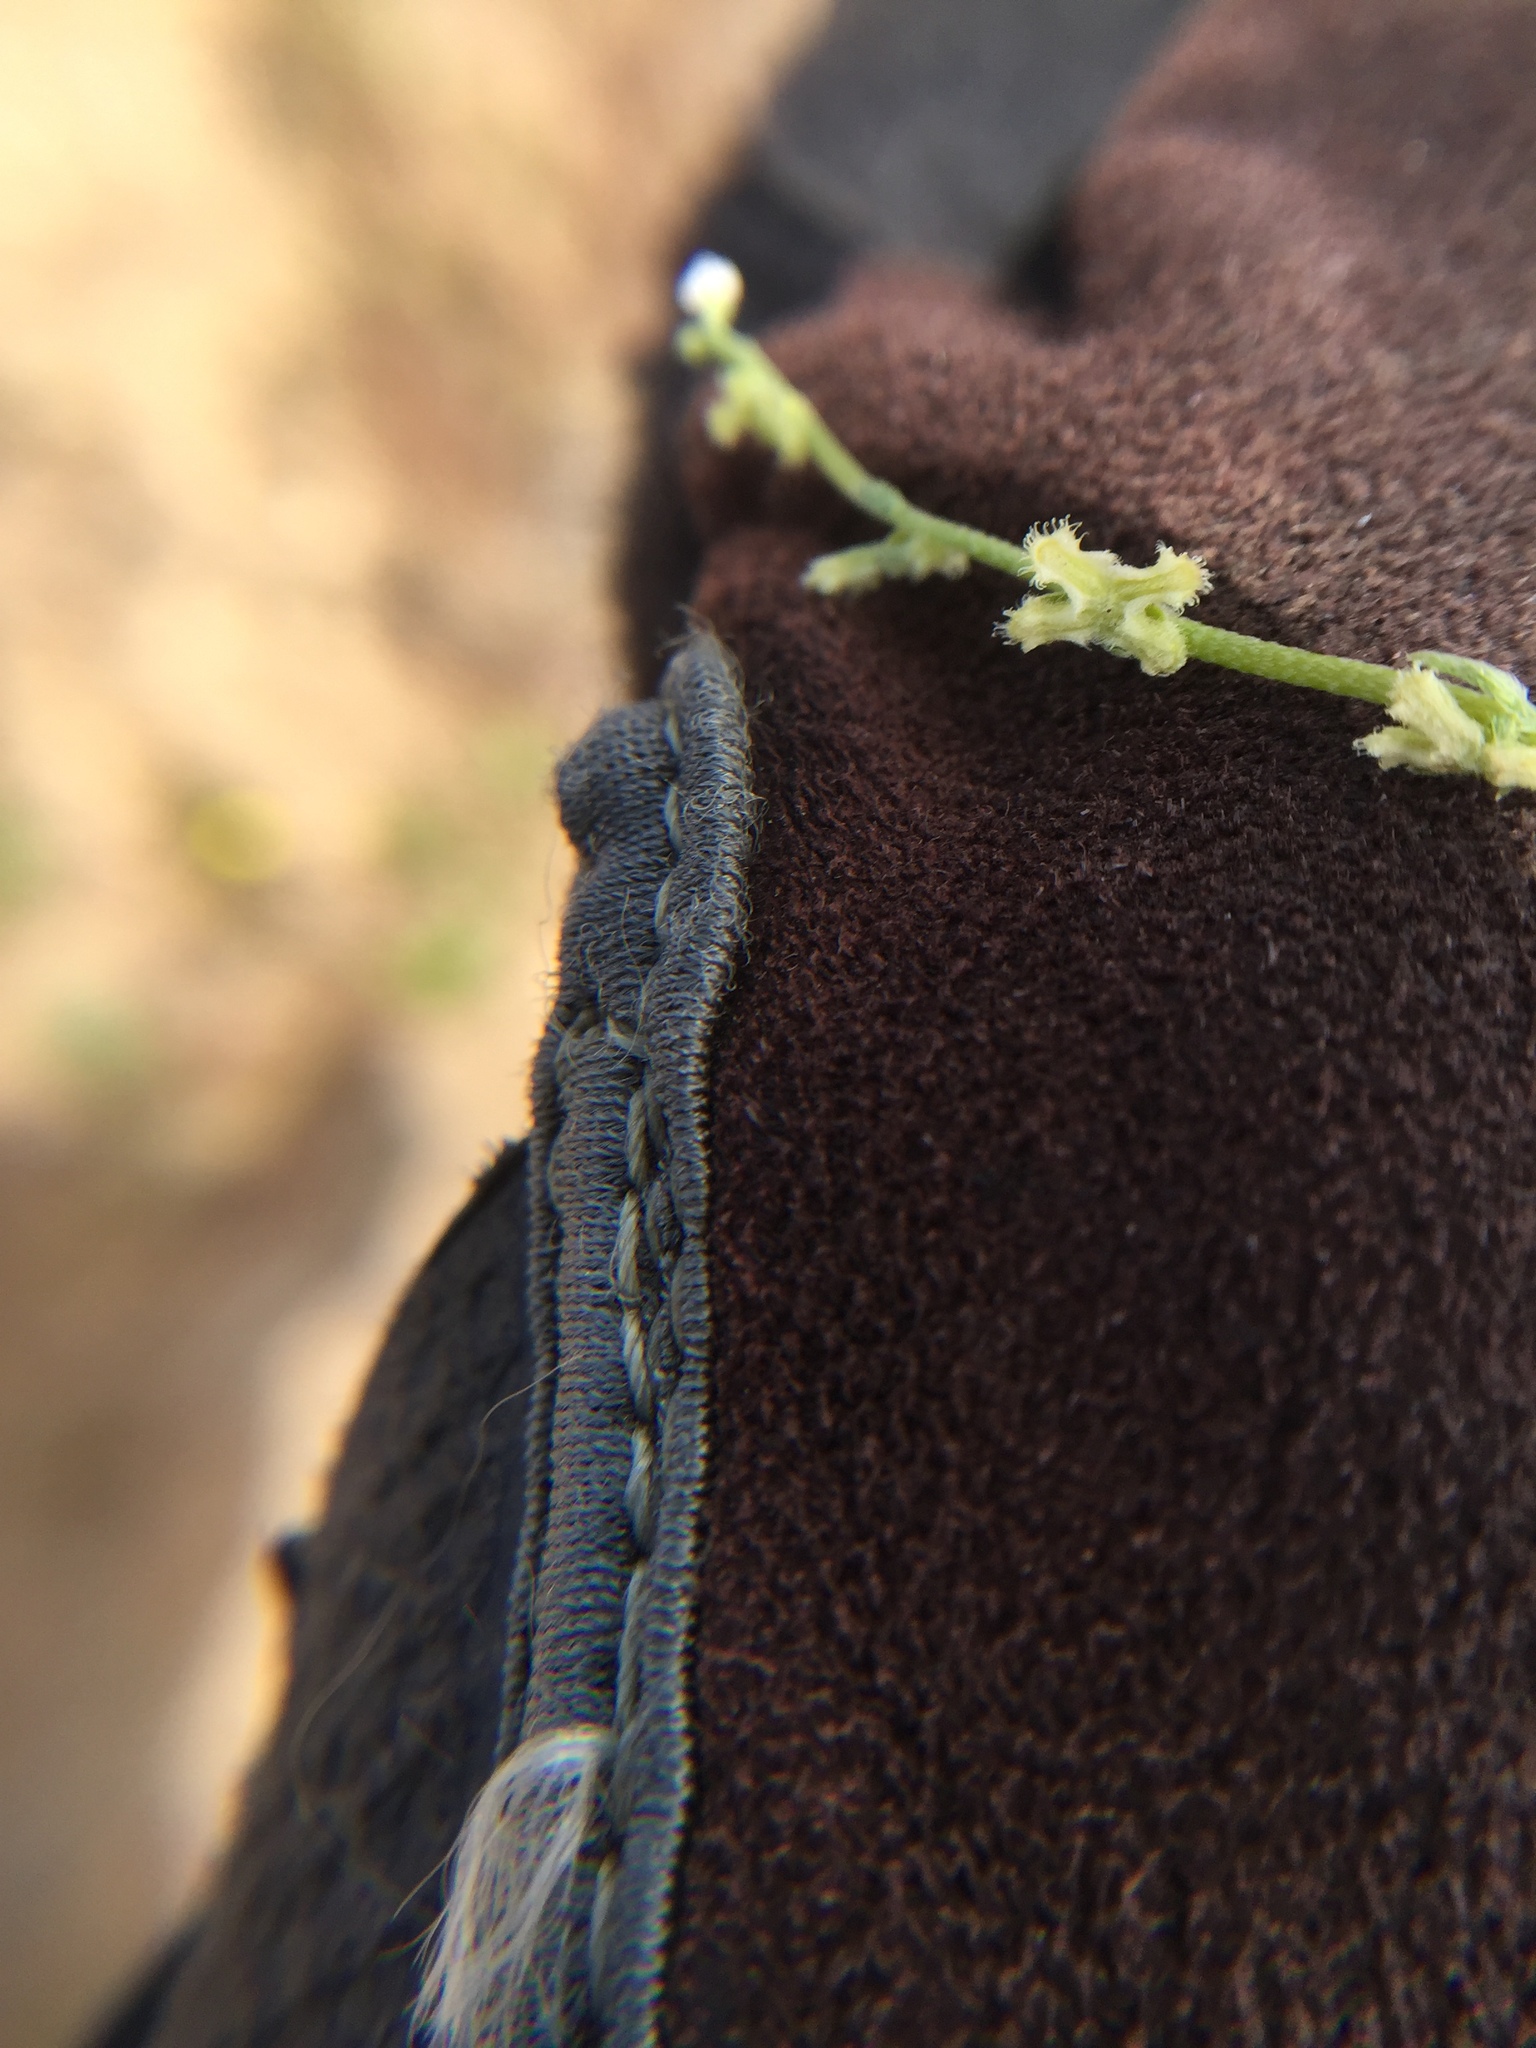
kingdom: Plantae
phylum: Tracheophyta
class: Magnoliopsida
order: Boraginales
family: Boraginaceae
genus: Pectocarya
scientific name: Pectocarya penicillata
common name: Short-leaved combseed
